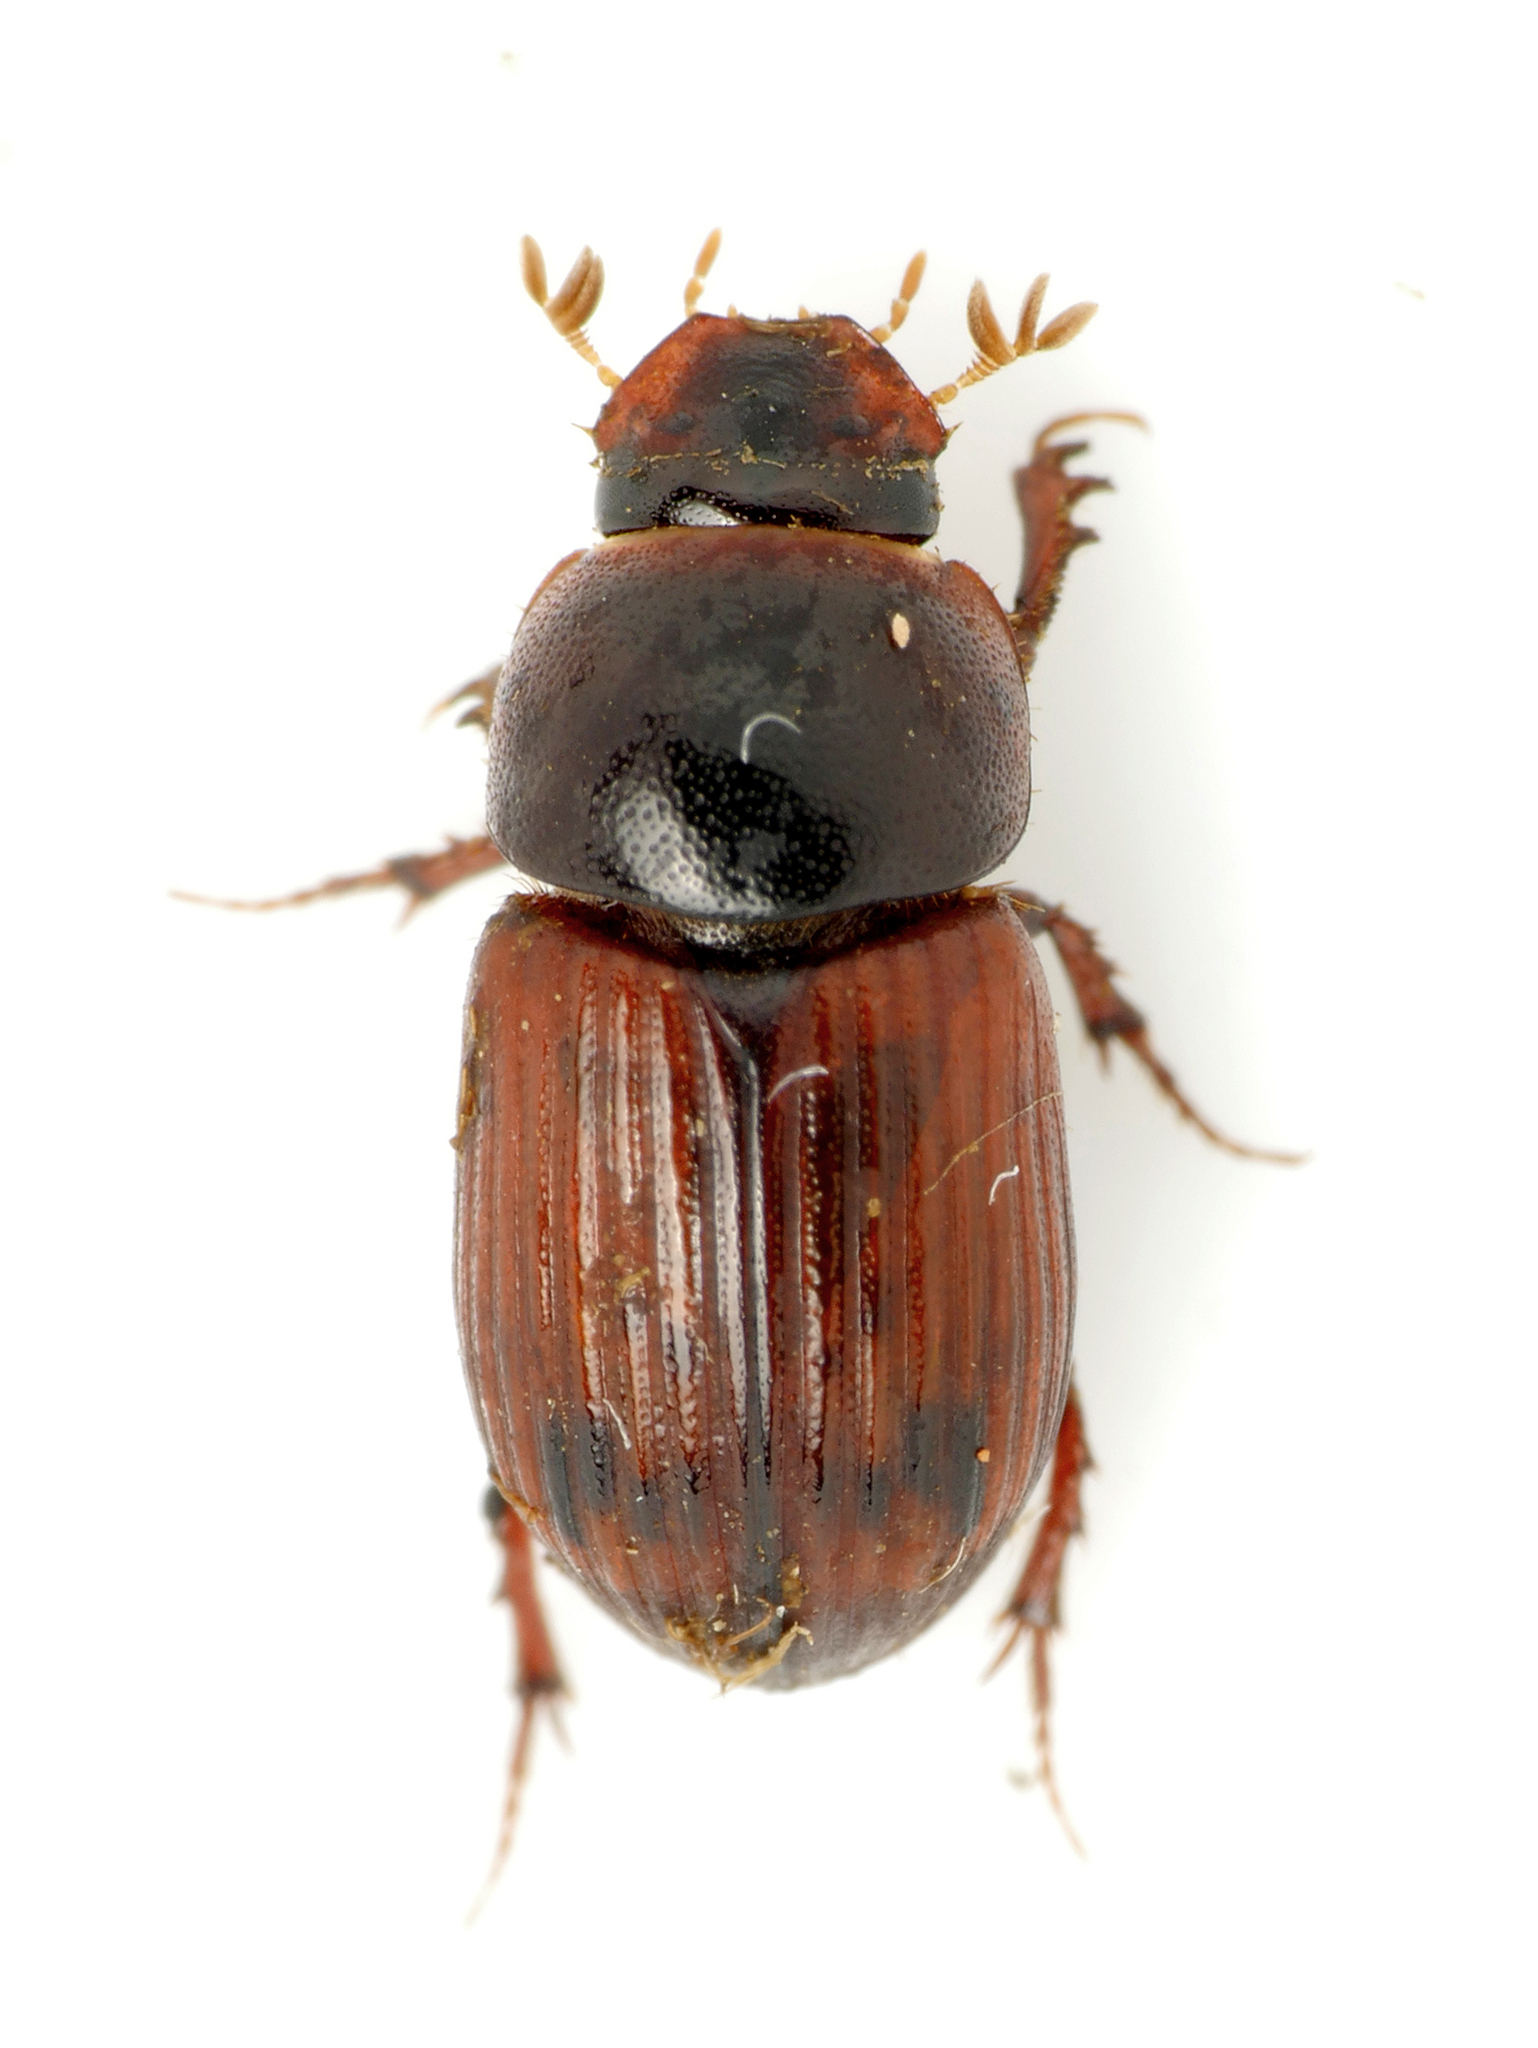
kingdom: Animalia
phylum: Arthropoda
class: Insecta
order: Coleoptera
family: Scarabaeidae
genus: Limarus
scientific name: Limarus zenkeri
